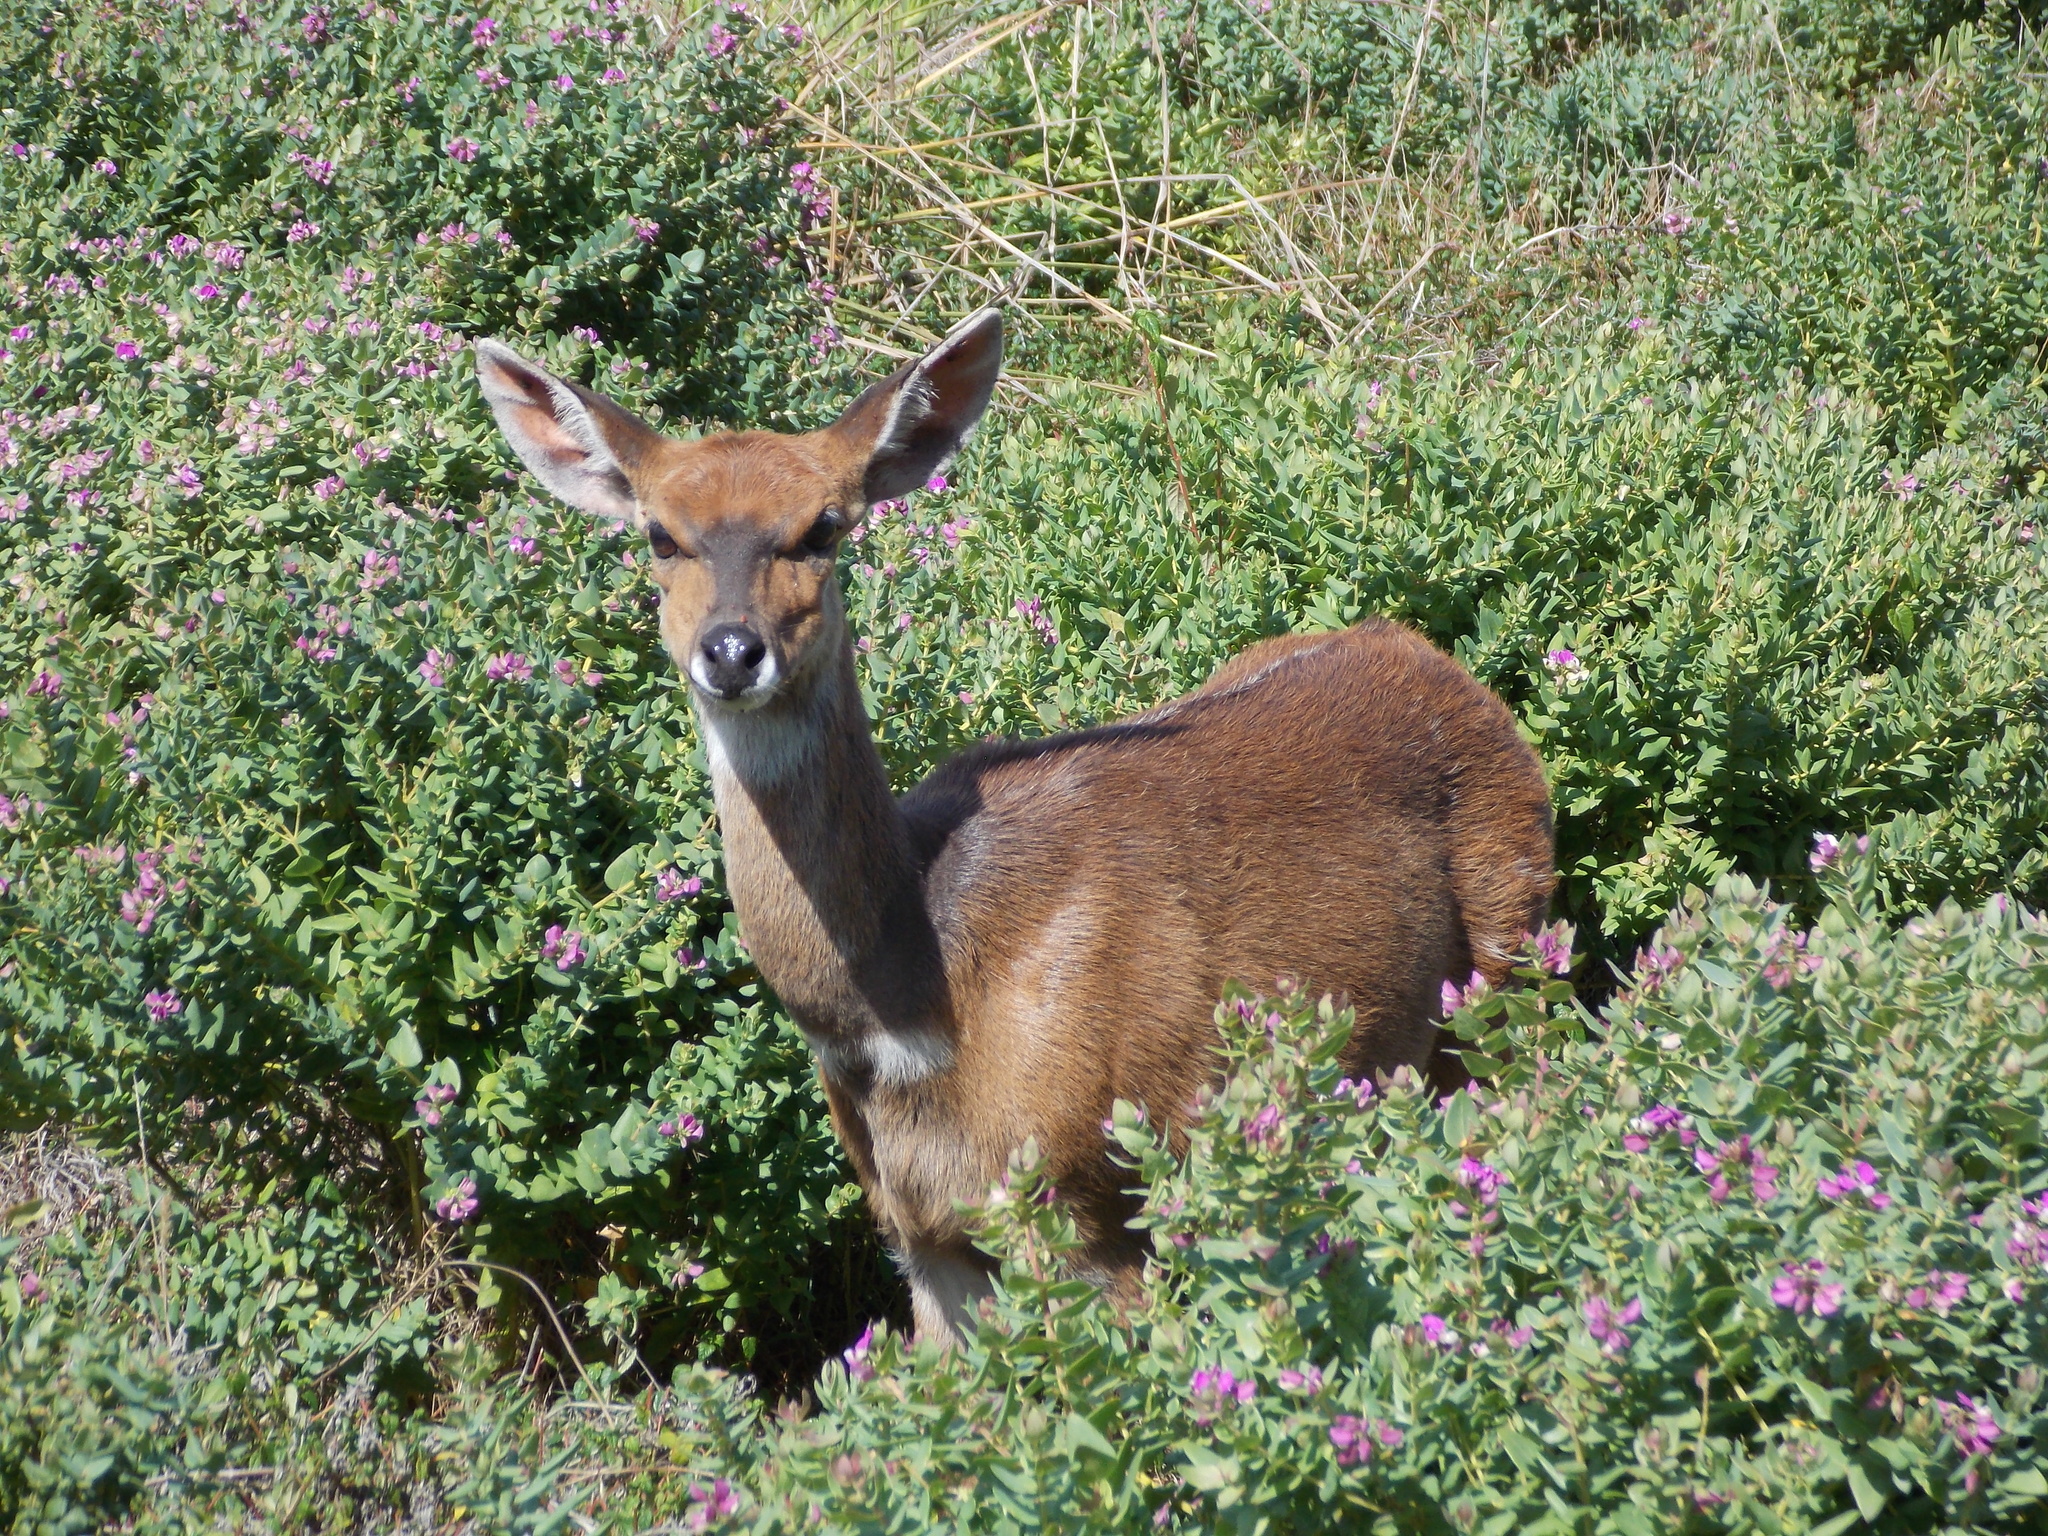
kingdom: Animalia
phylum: Chordata
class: Mammalia
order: Artiodactyla
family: Bovidae
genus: Tragelaphus
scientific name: Tragelaphus scriptus
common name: Bushbuck
